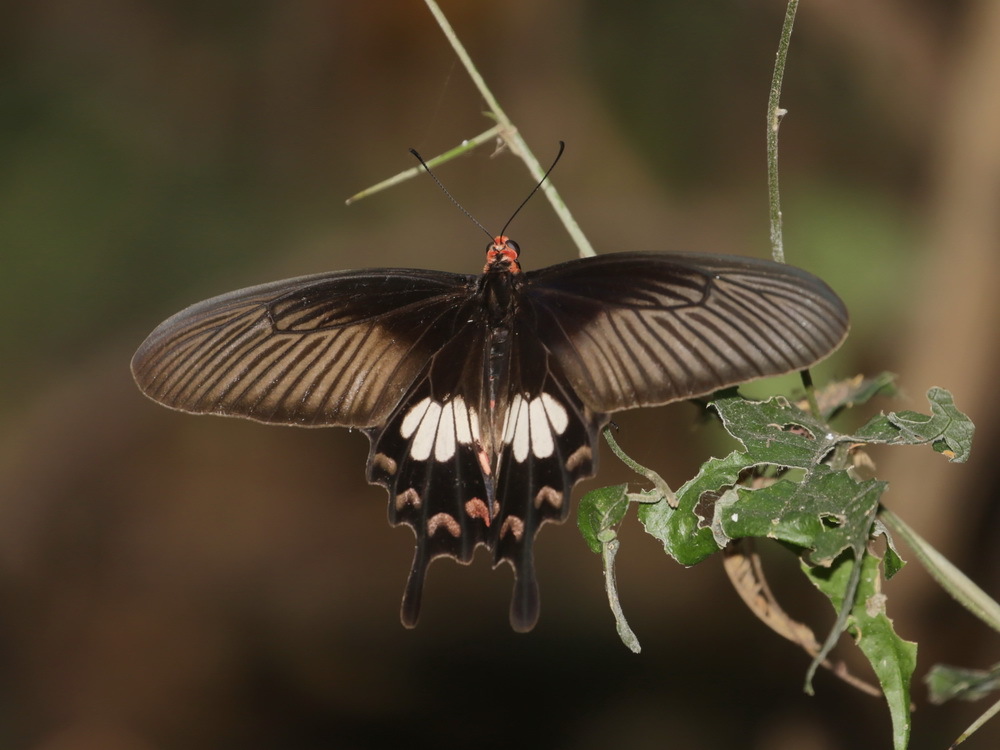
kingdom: Animalia
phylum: Arthropoda
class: Insecta
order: Lepidoptera
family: Papilionidae
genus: Pachliopta
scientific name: Pachliopta aristolochiae
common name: Common rose
